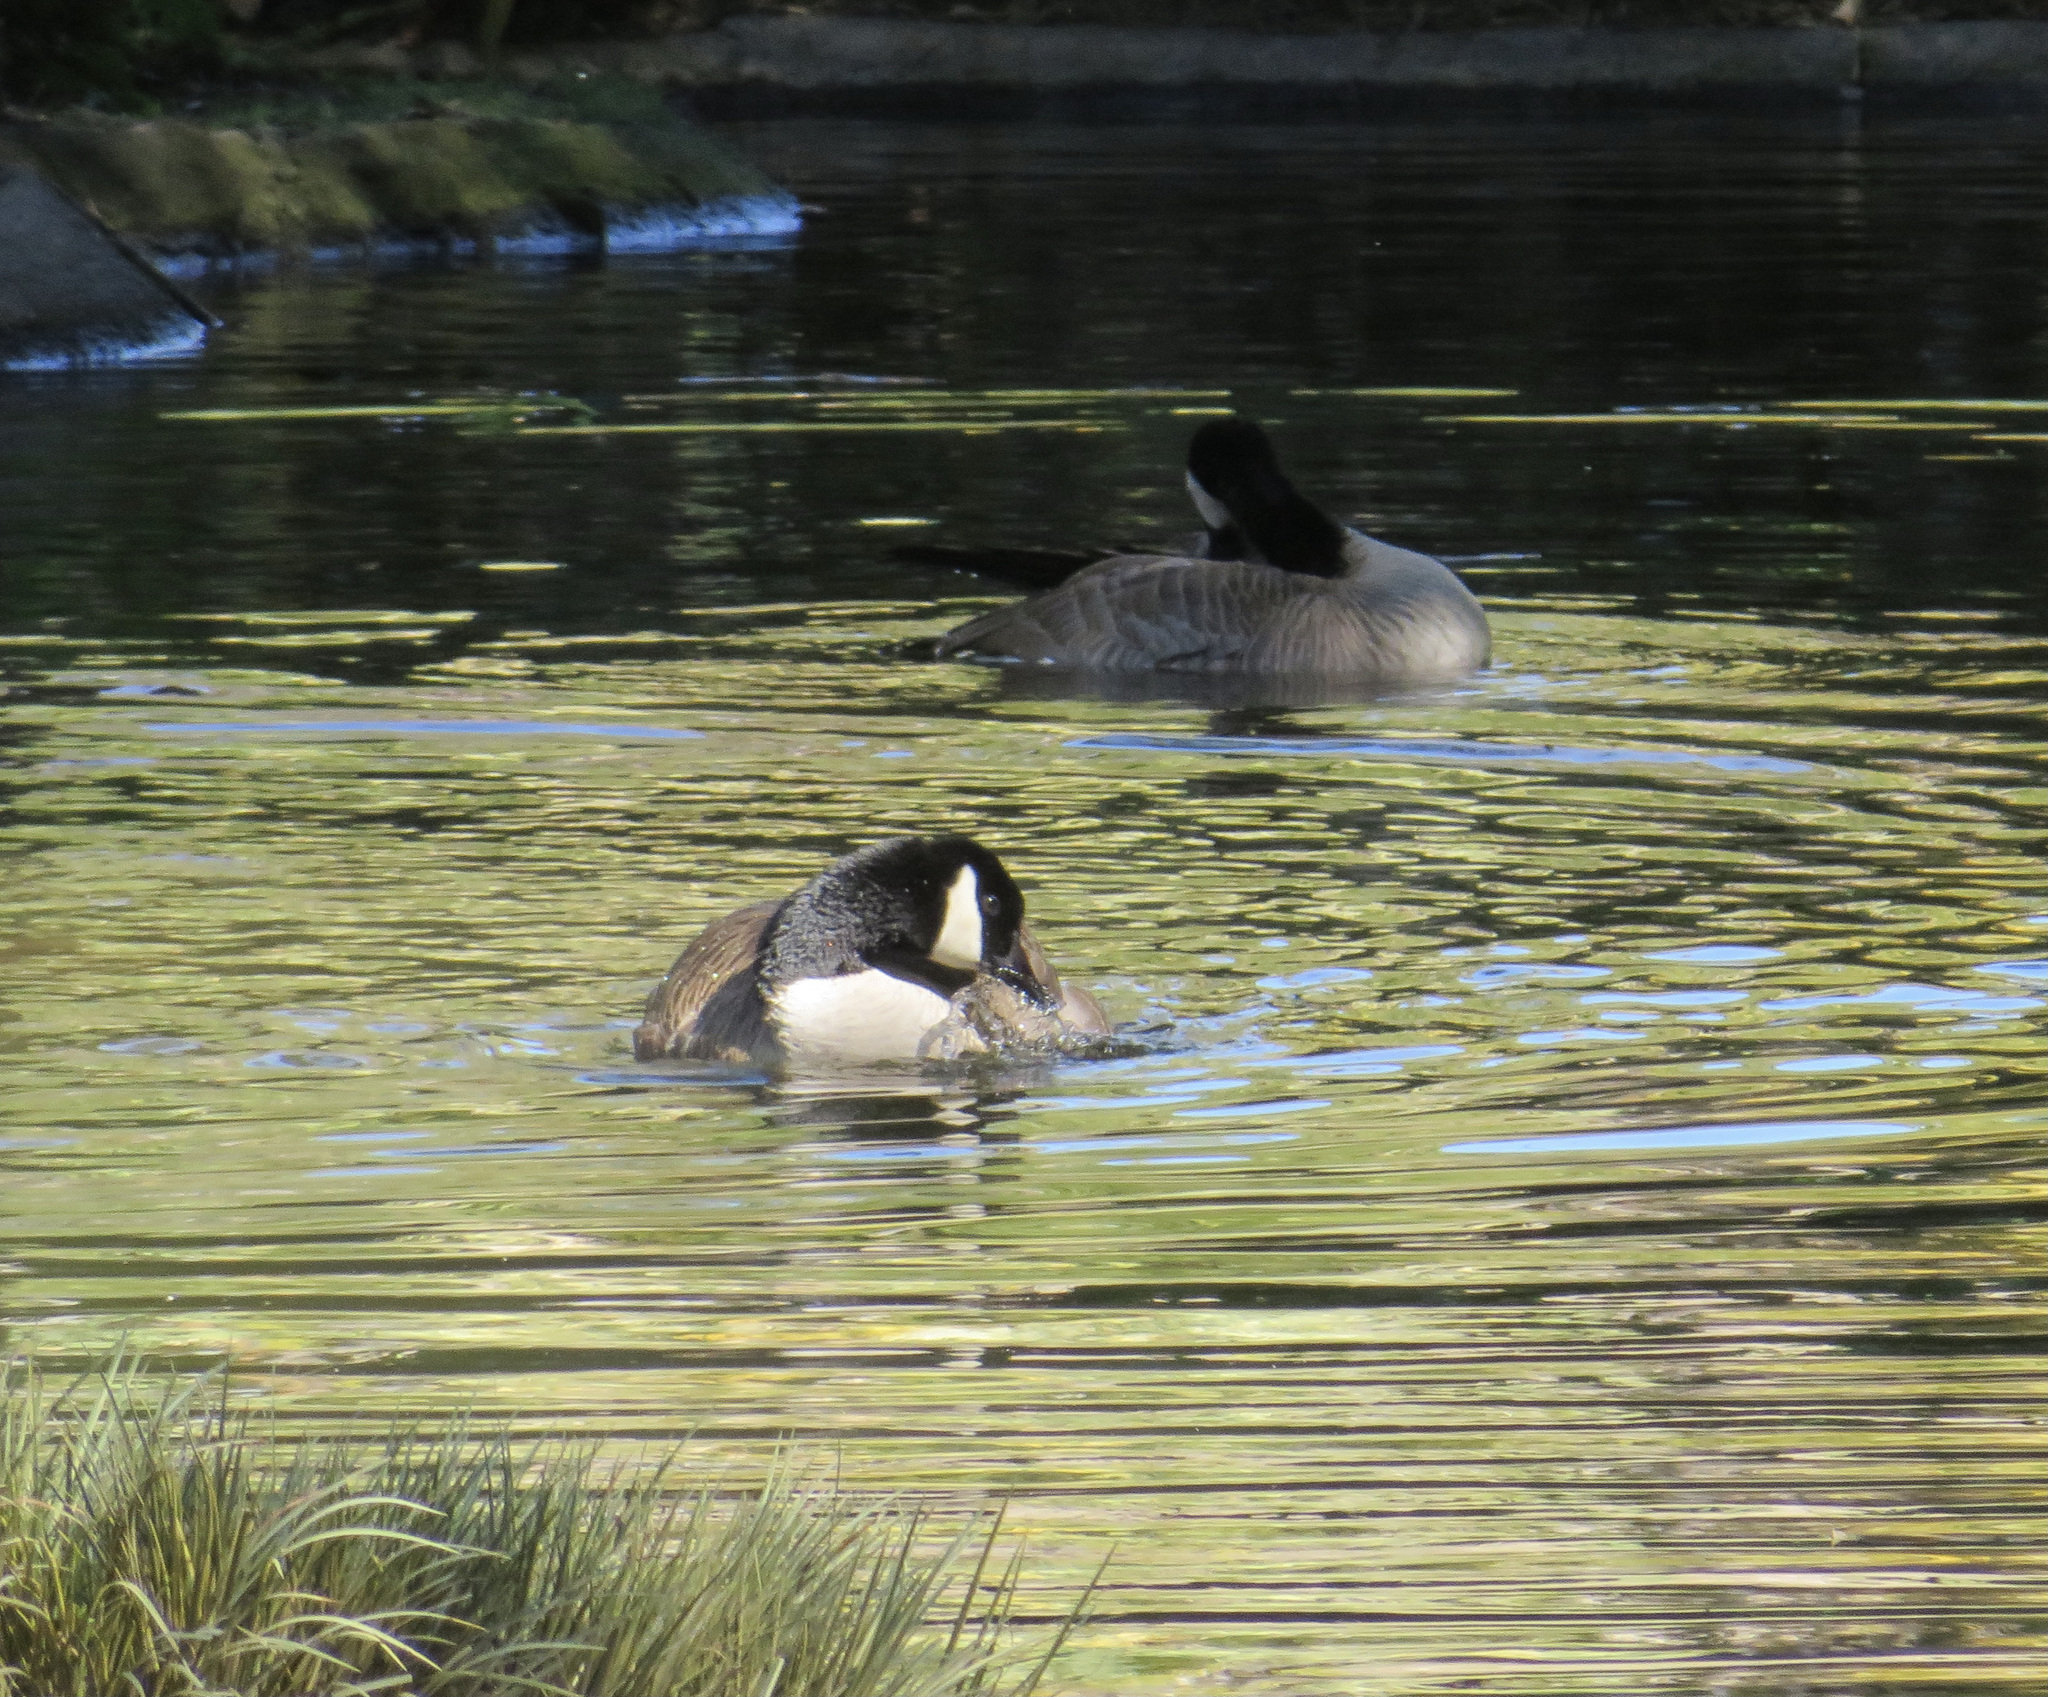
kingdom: Animalia
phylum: Chordata
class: Aves
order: Anseriformes
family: Anatidae
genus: Branta
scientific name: Branta hutchinsii
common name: Cackling goose
